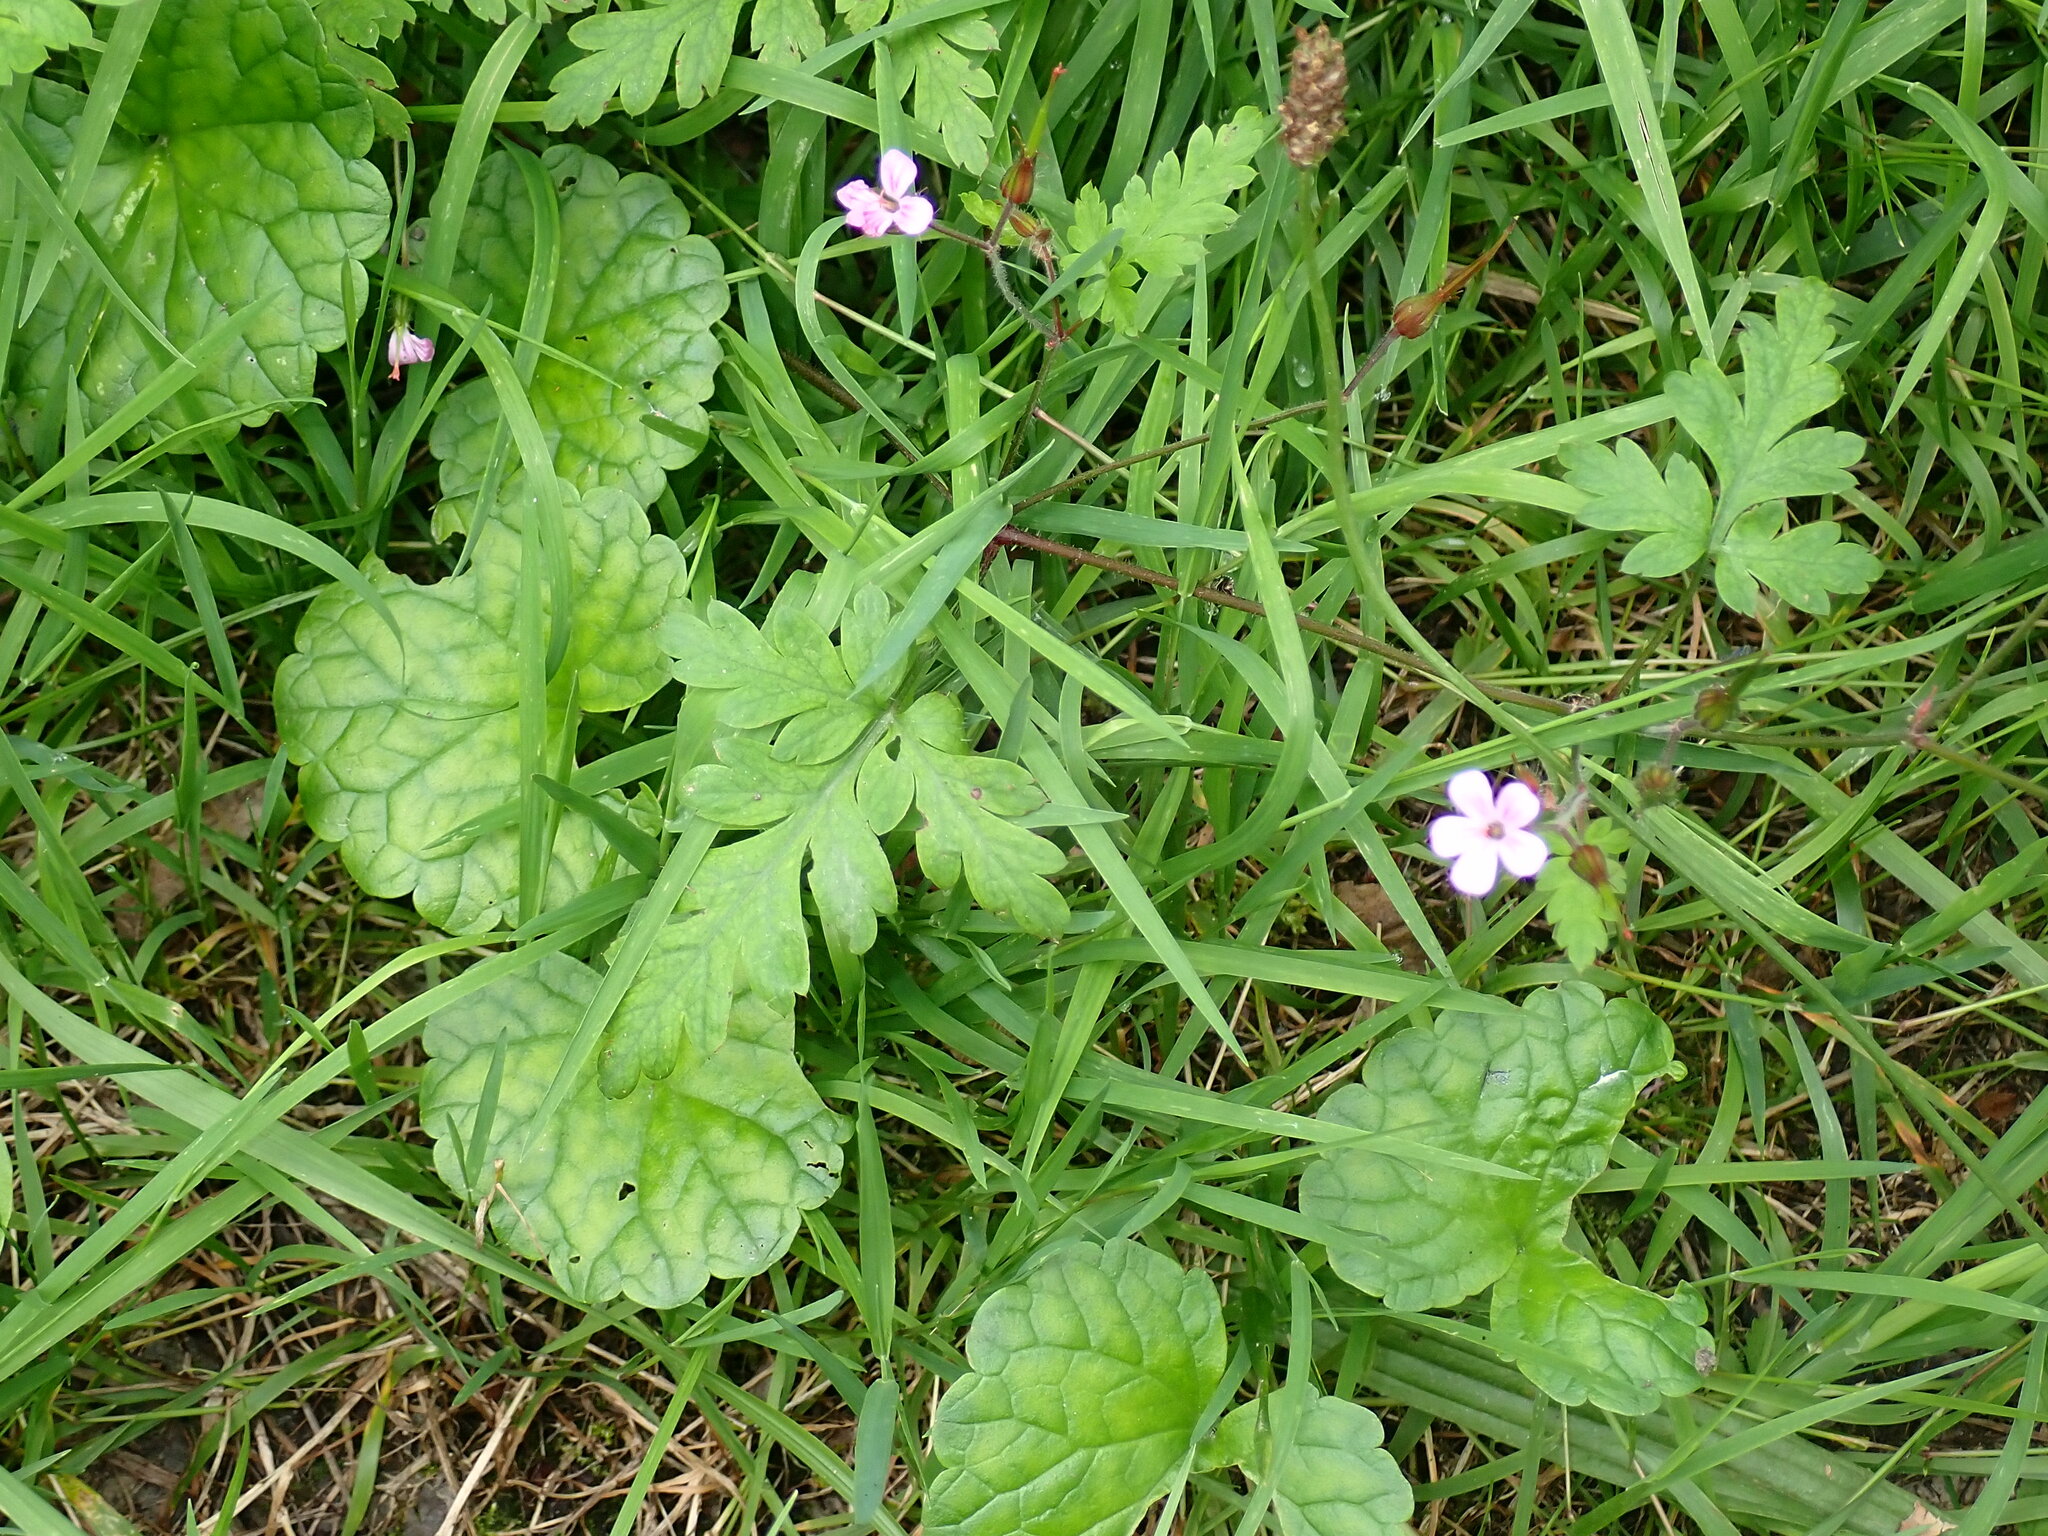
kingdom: Plantae
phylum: Tracheophyta
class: Magnoliopsida
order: Geraniales
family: Geraniaceae
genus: Geranium
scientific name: Geranium robertianum
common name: Herb-robert
